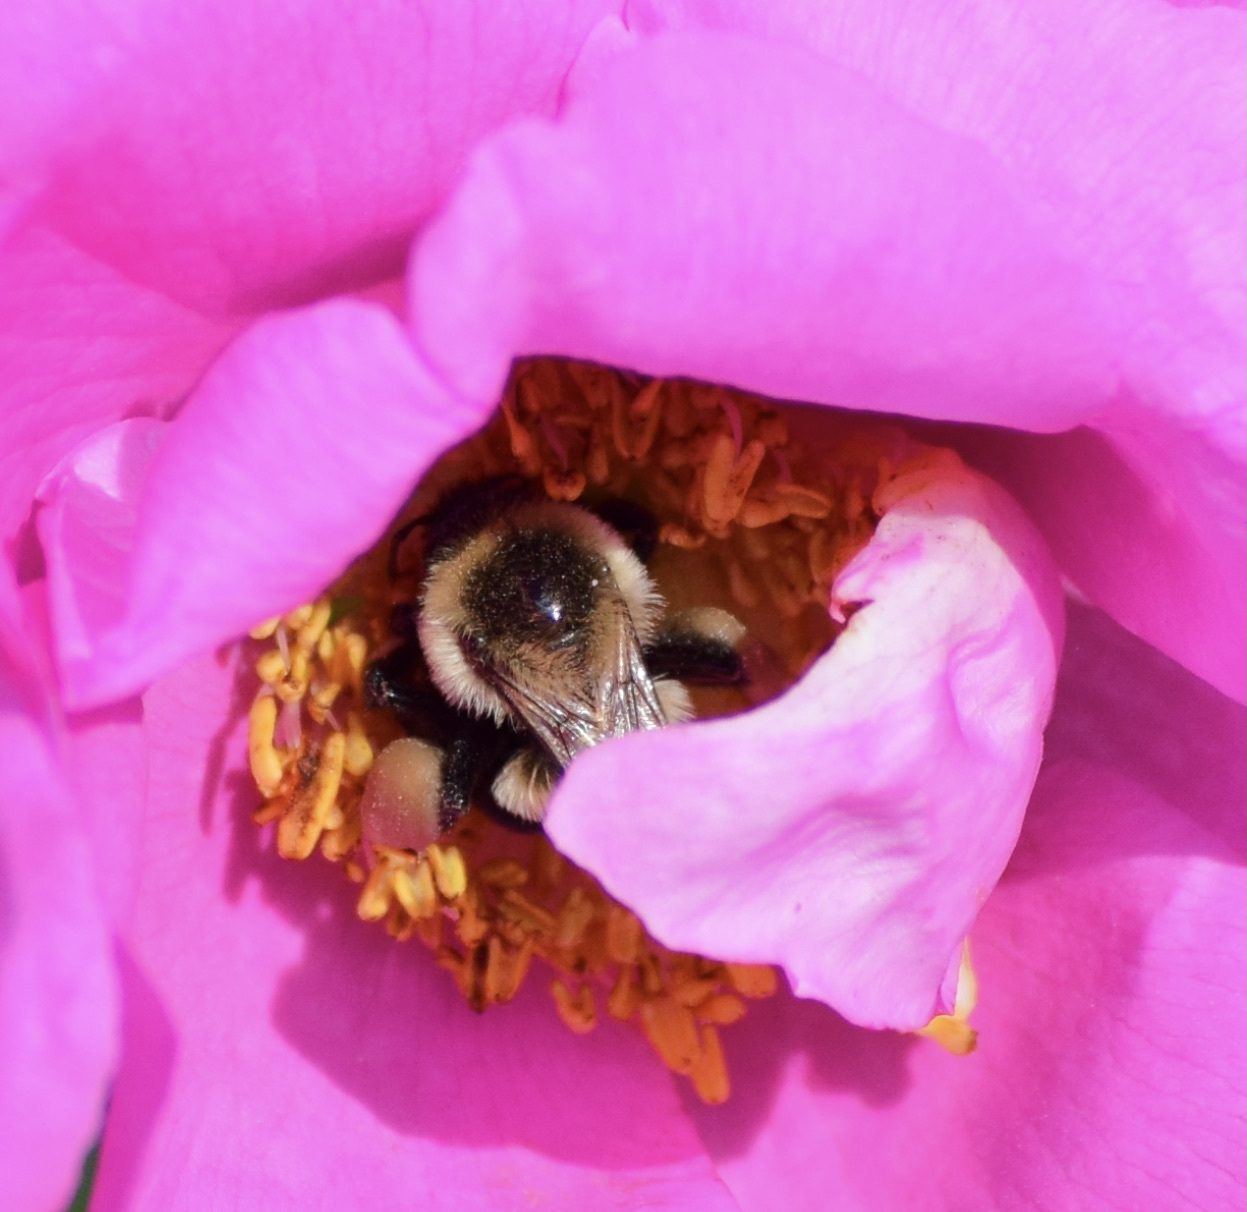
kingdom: Animalia
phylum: Arthropoda
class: Insecta
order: Hymenoptera
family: Apidae
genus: Bombus
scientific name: Bombus impatiens
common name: Common eastern bumble bee
